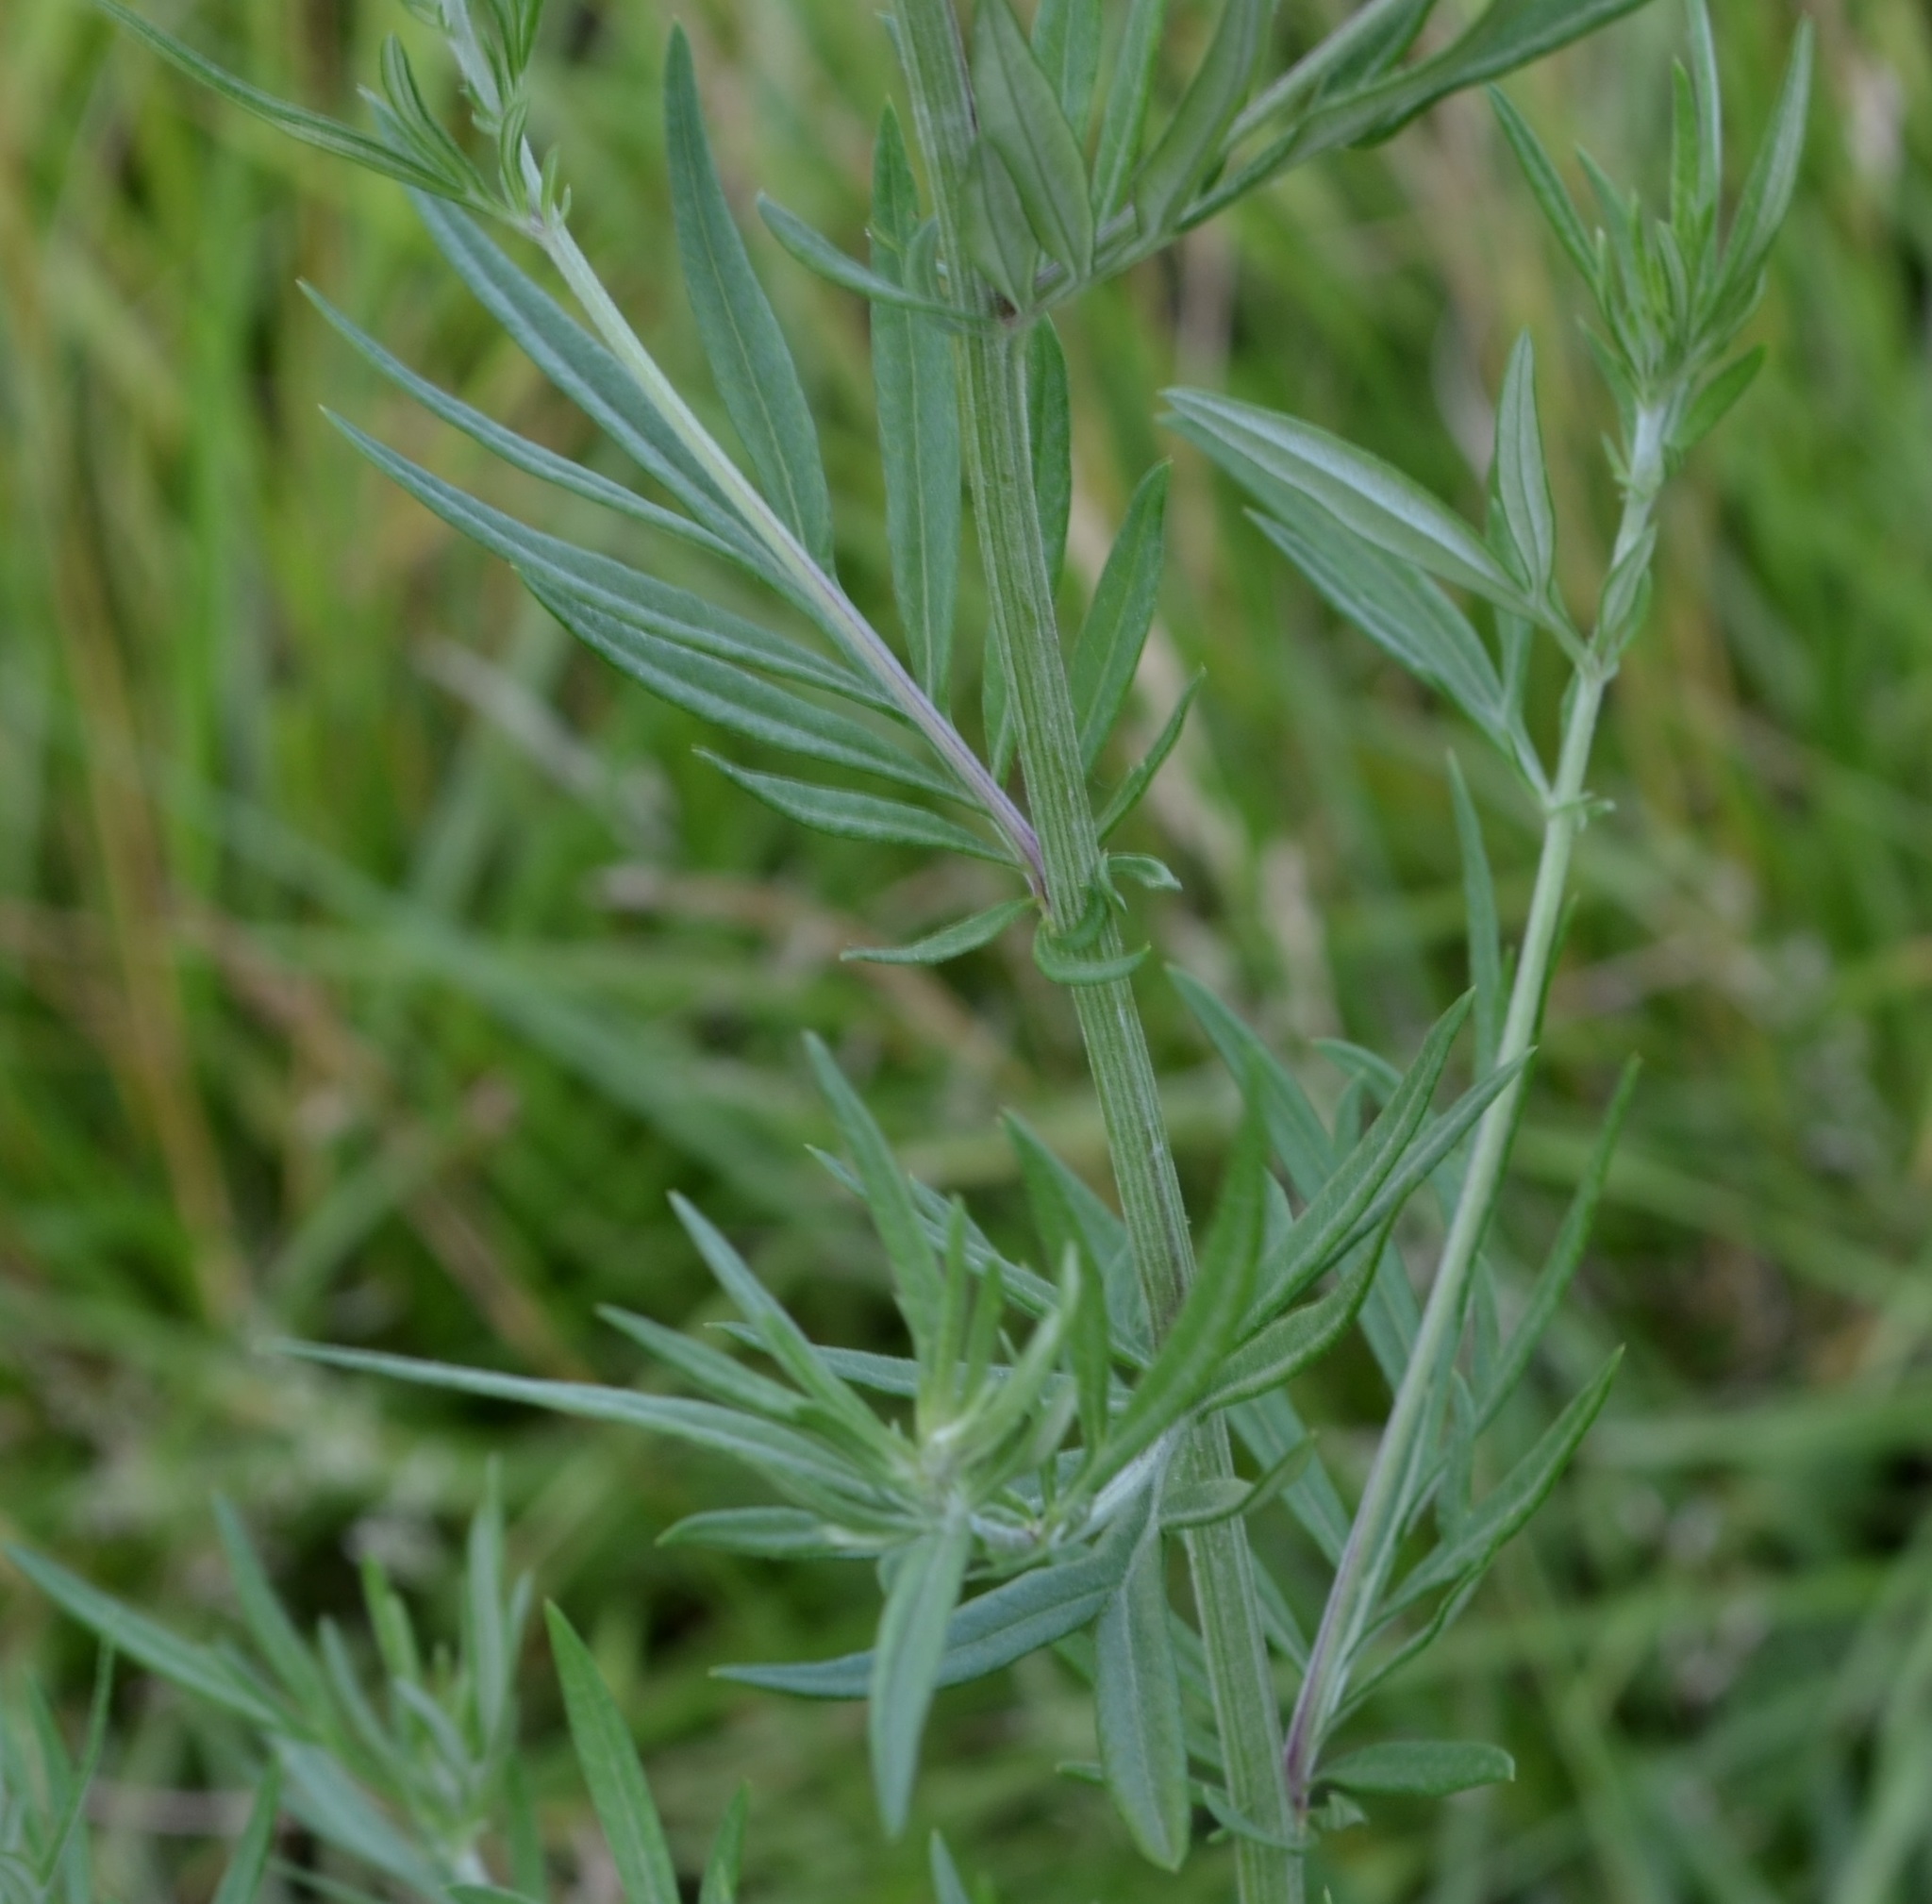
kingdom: Plantae
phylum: Tracheophyta
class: Magnoliopsida
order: Asterales
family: Asteraceae
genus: Artemisia
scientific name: Artemisia vulgaris
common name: Mugwort
